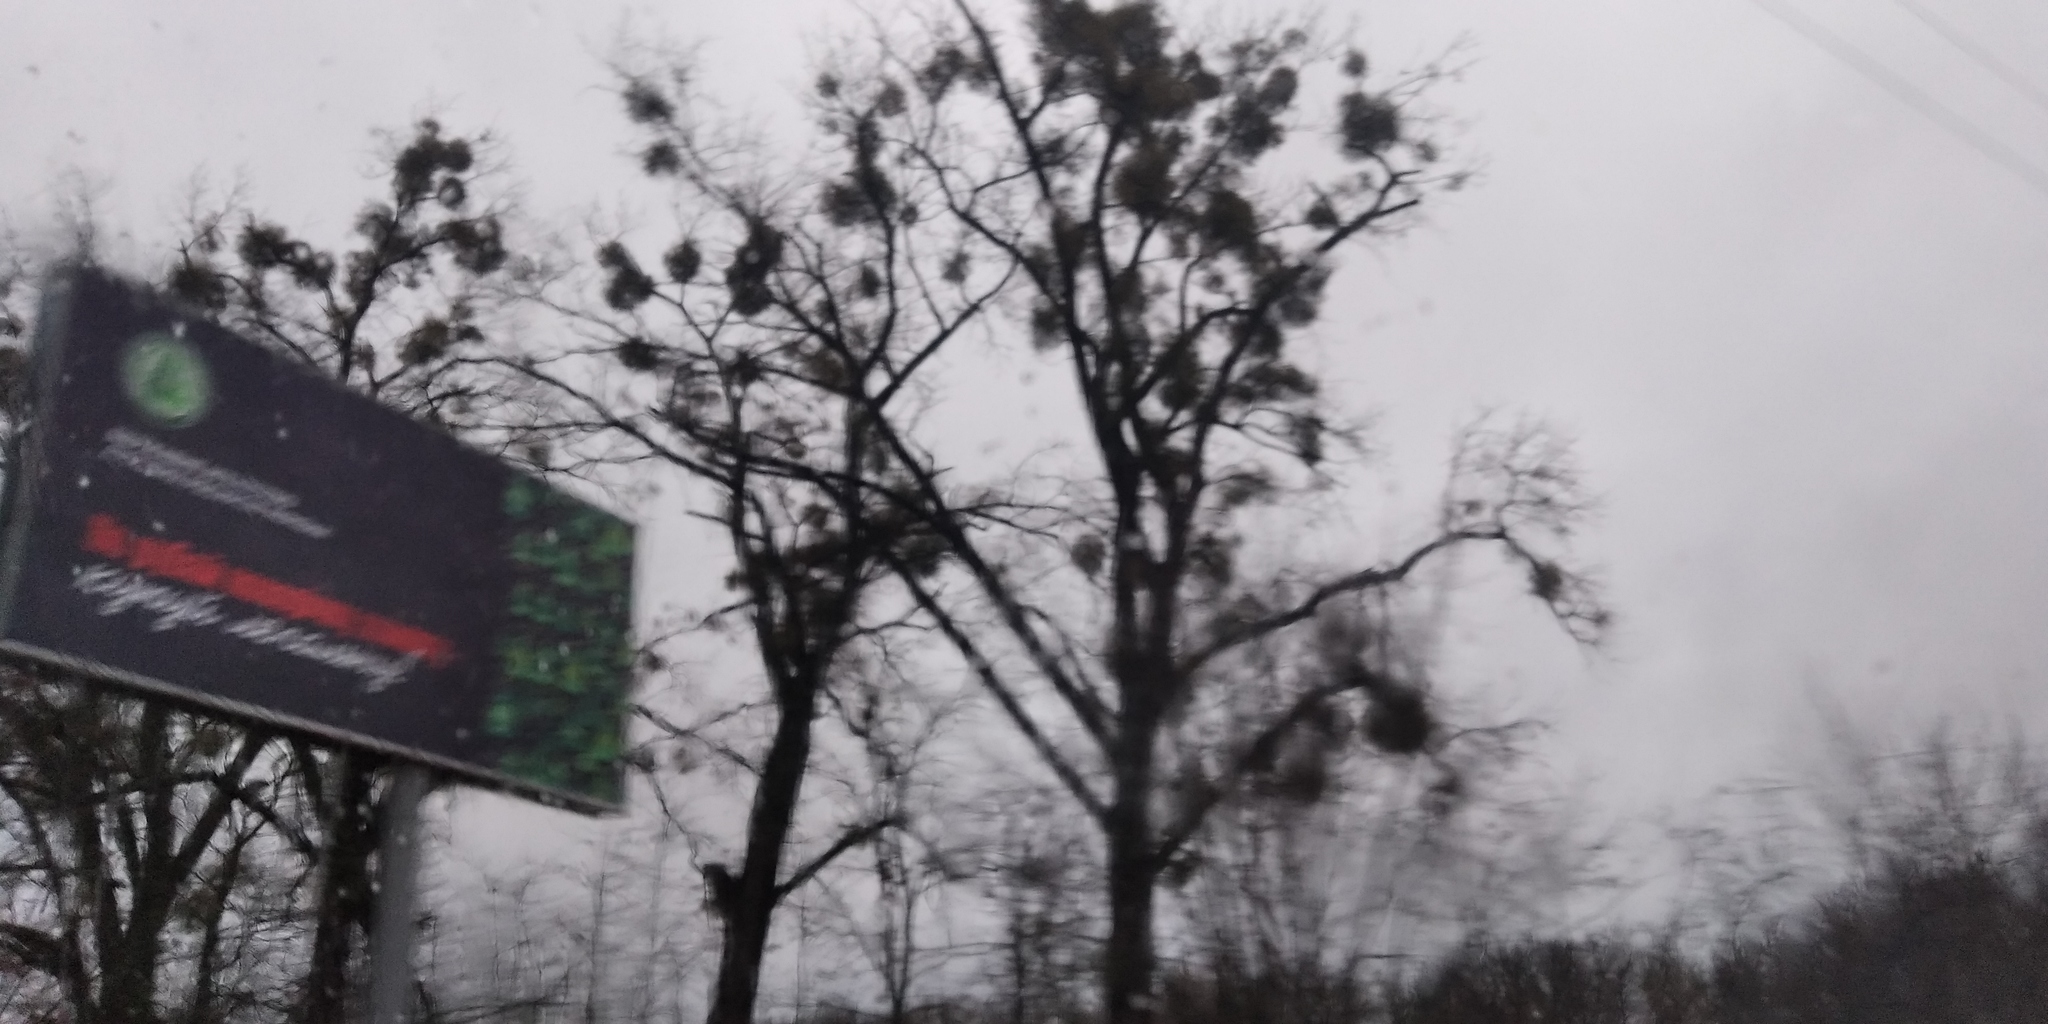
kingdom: Plantae
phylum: Tracheophyta
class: Magnoliopsida
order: Santalales
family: Viscaceae
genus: Viscum
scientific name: Viscum album
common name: Mistletoe
